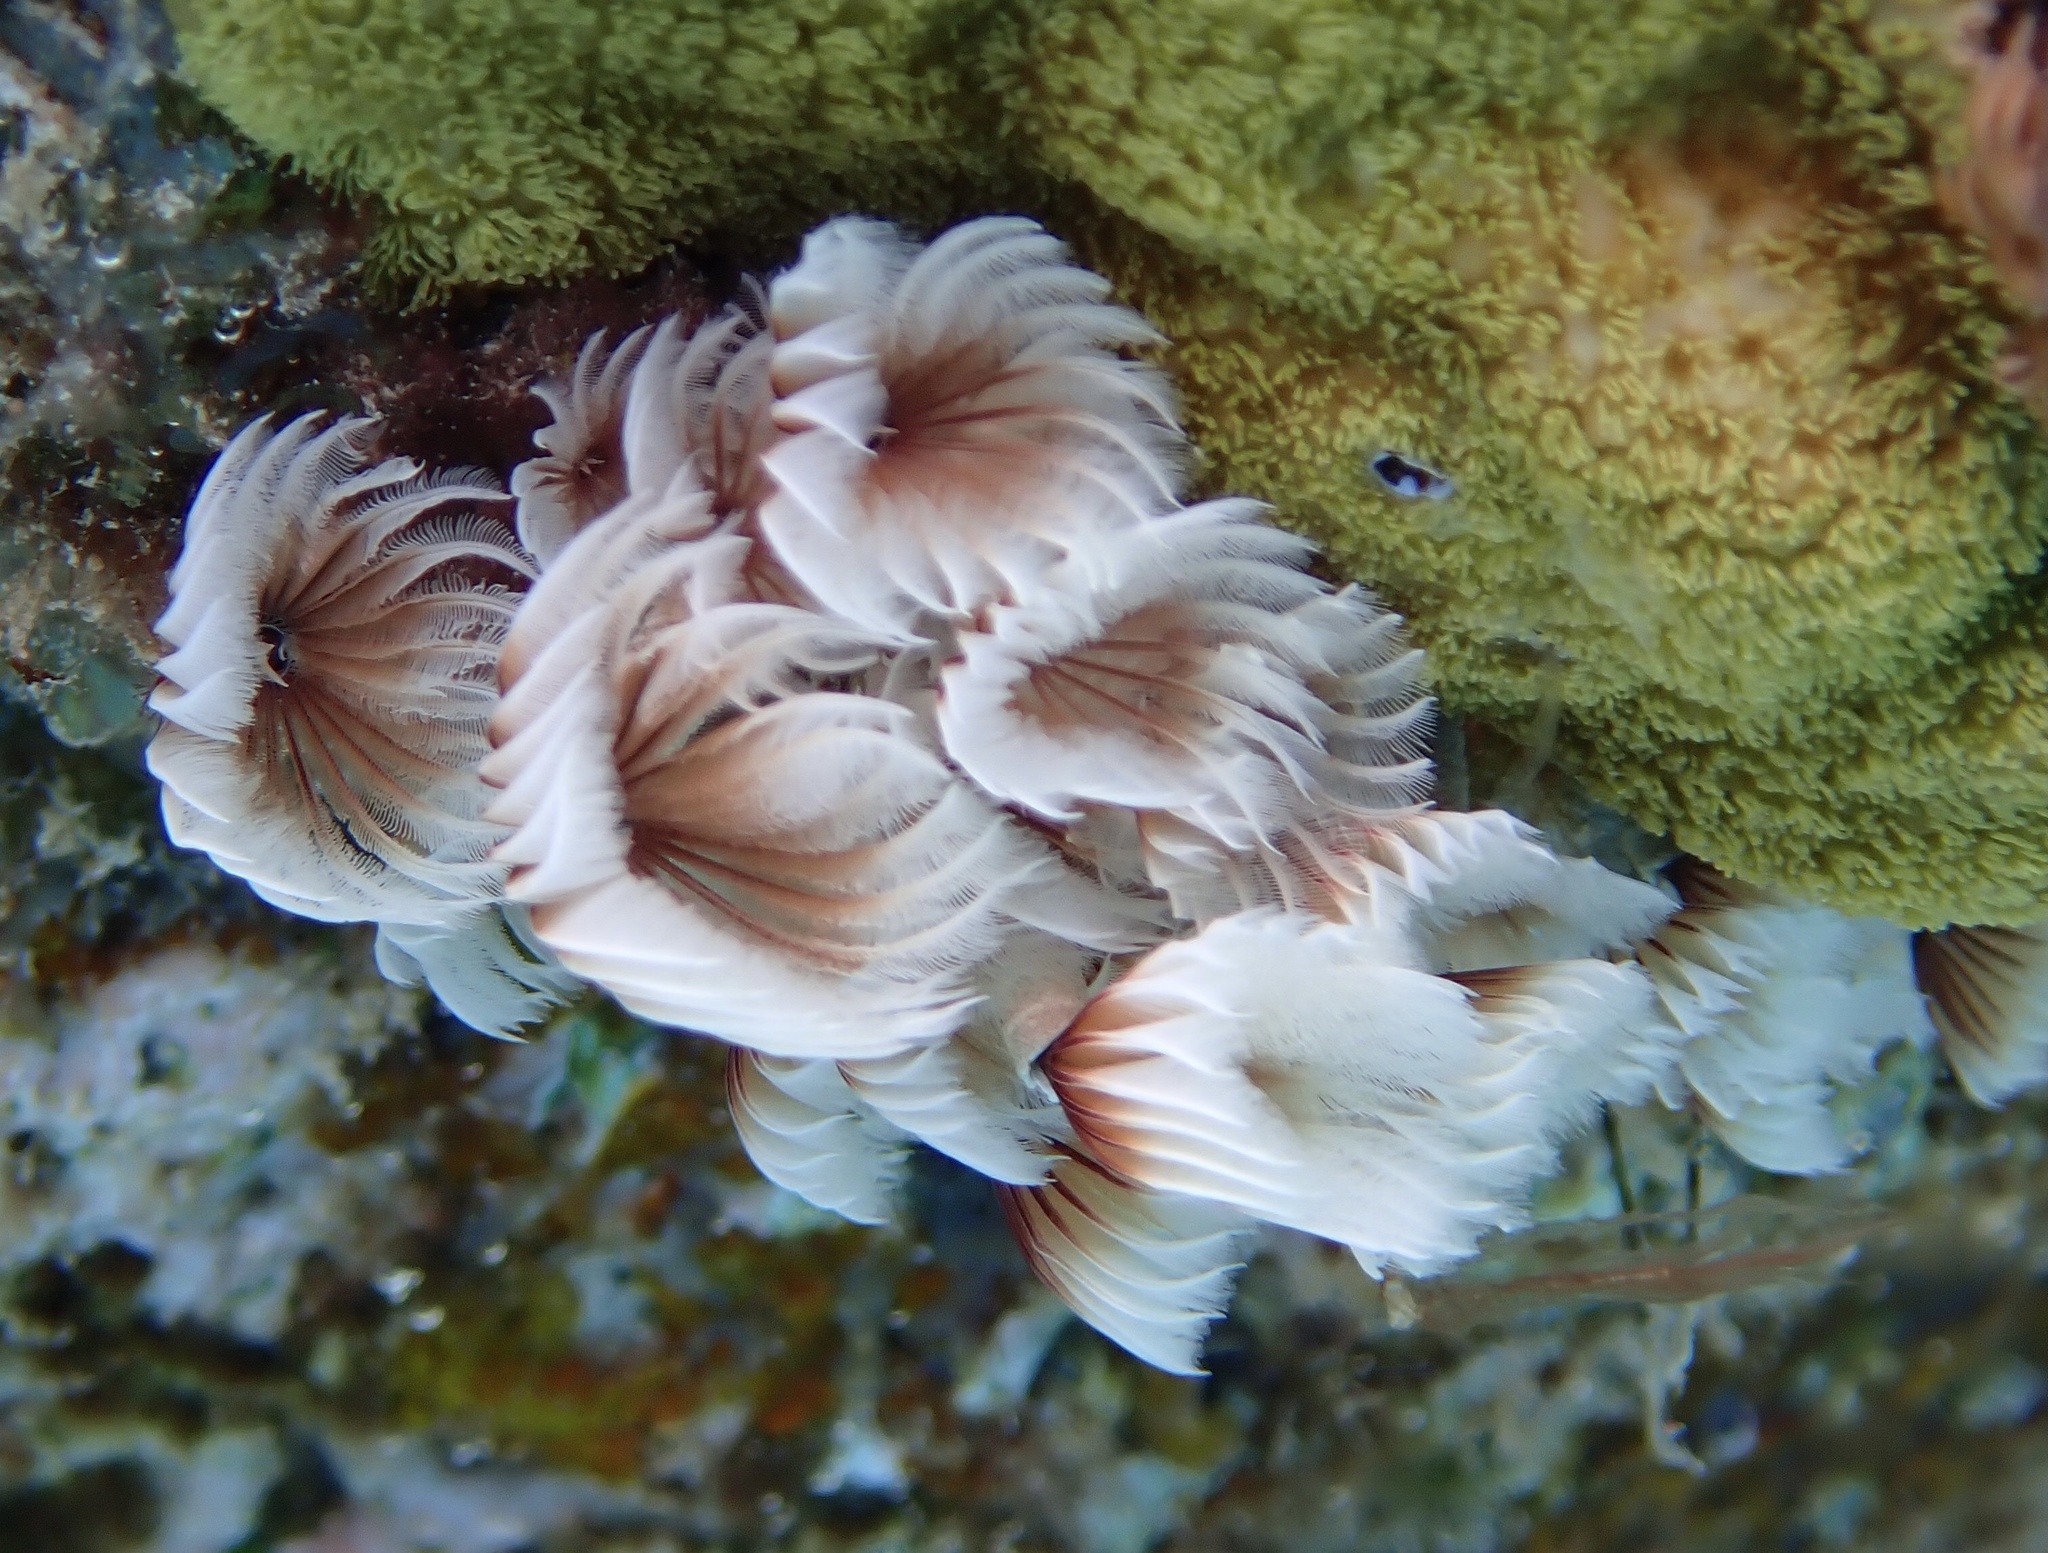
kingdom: Animalia
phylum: Annelida
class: Polychaeta
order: Sabellida
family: Sabellidae
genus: Bispira
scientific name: Bispira brunnea
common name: Social feather duster
